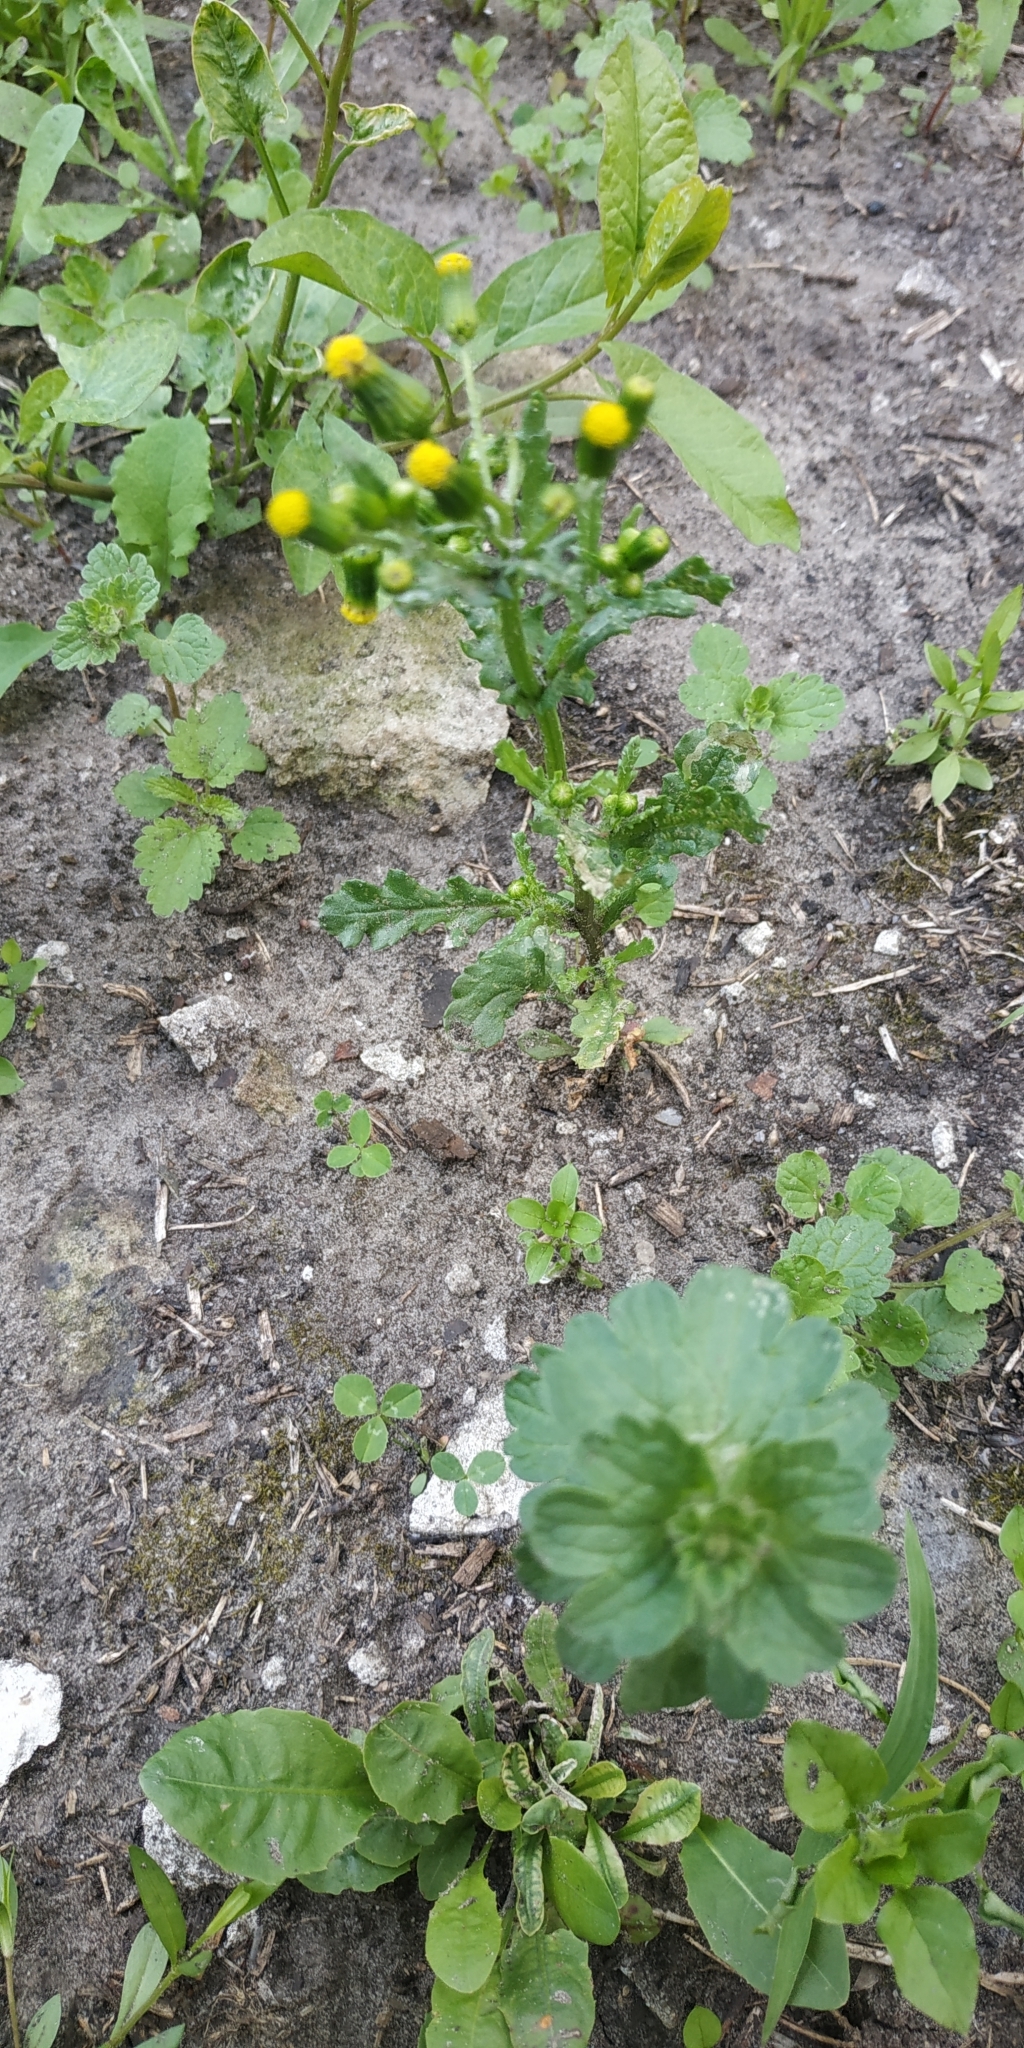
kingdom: Plantae
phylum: Tracheophyta
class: Magnoliopsida
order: Asterales
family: Asteraceae
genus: Senecio
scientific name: Senecio vulgaris
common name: Old-man-in-the-spring
